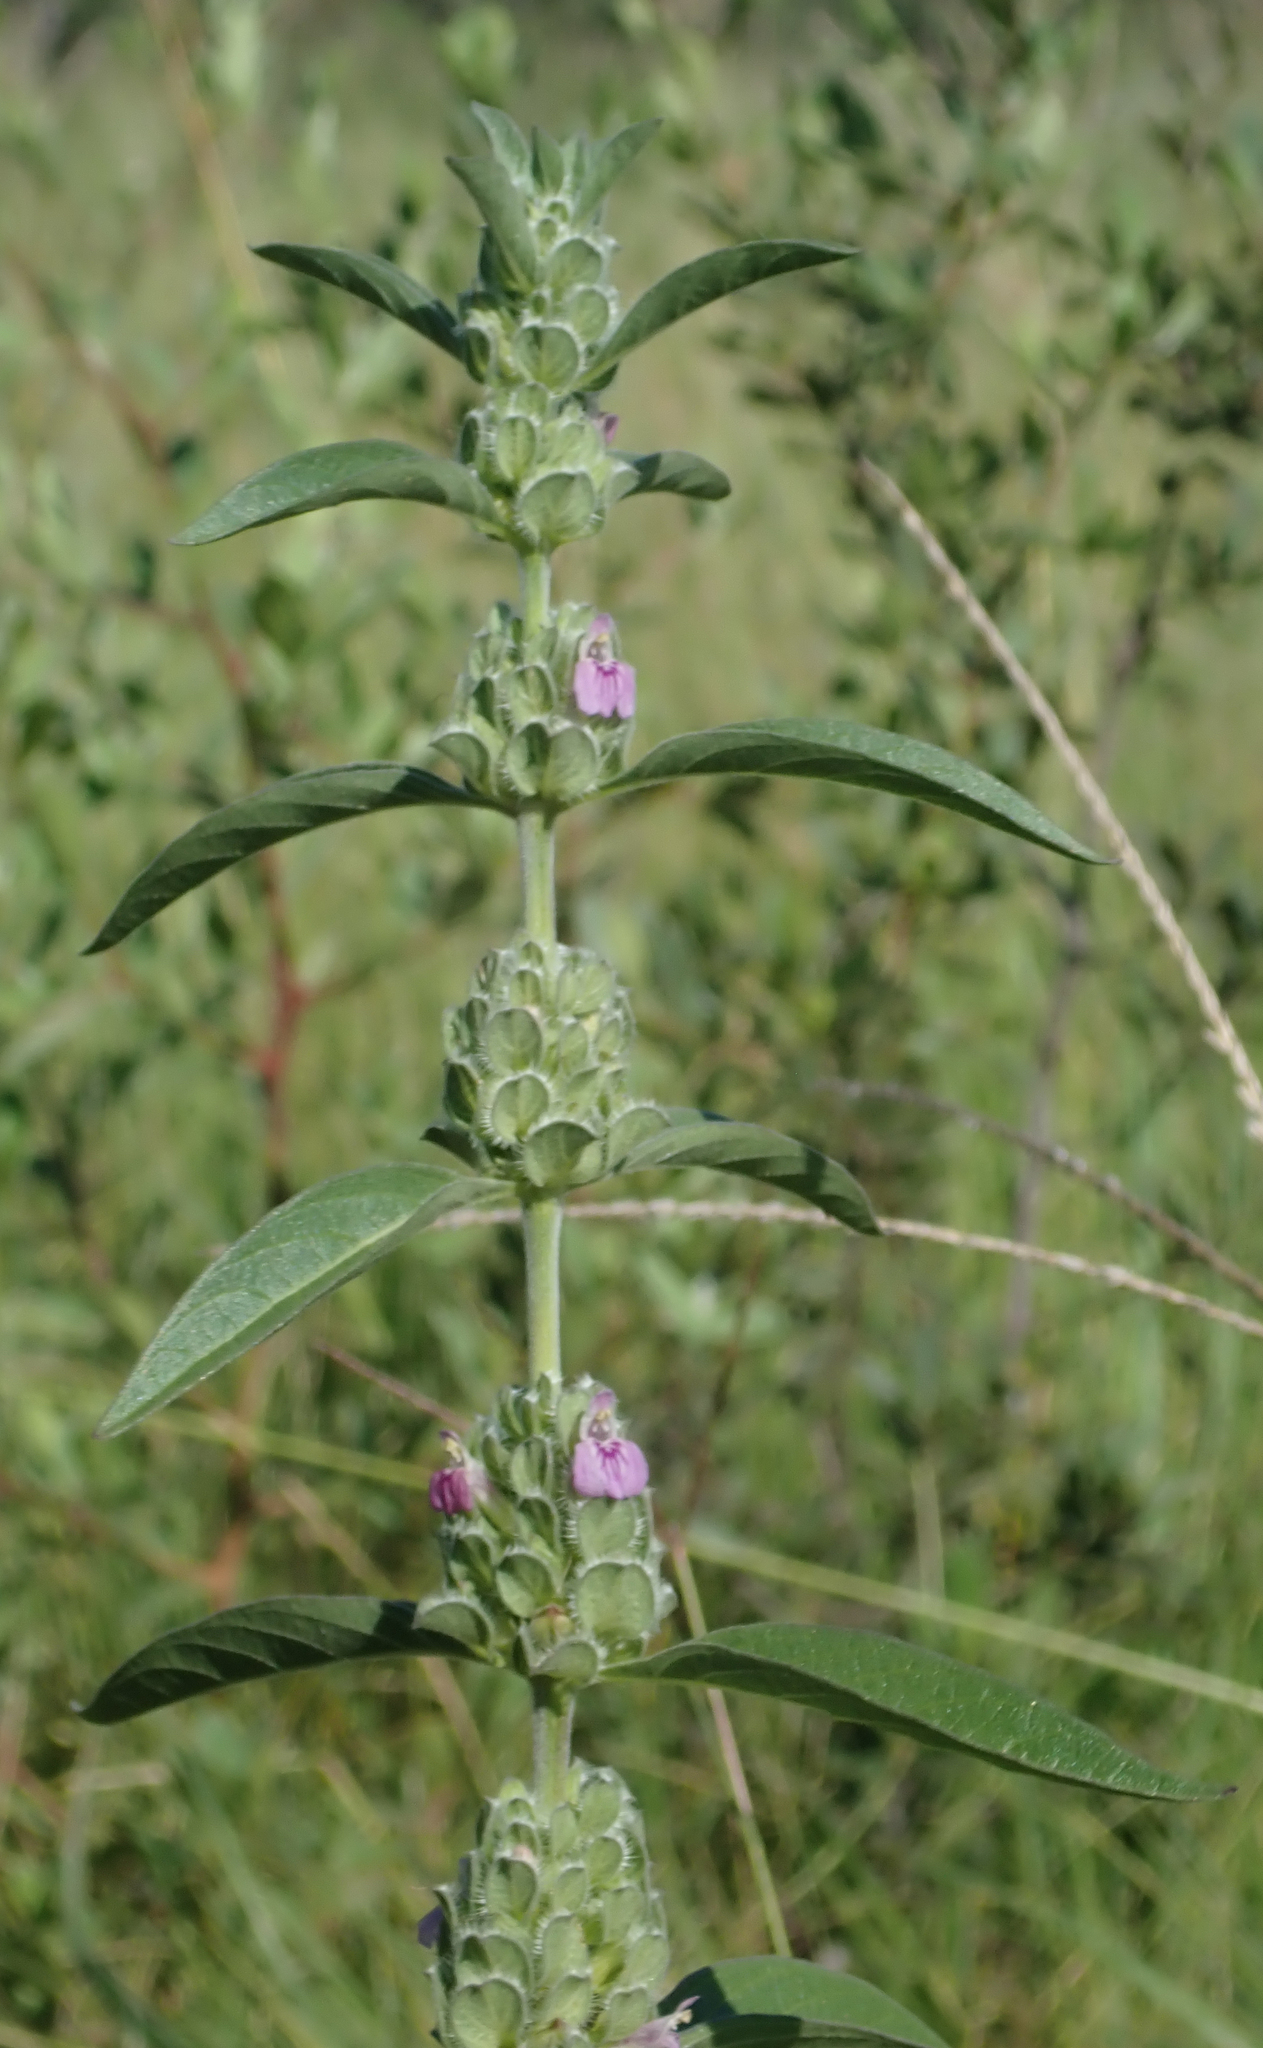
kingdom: Plantae
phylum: Tracheophyta
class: Magnoliopsida
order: Lamiales
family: Acanthaceae
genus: Monechma
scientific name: Monechma
